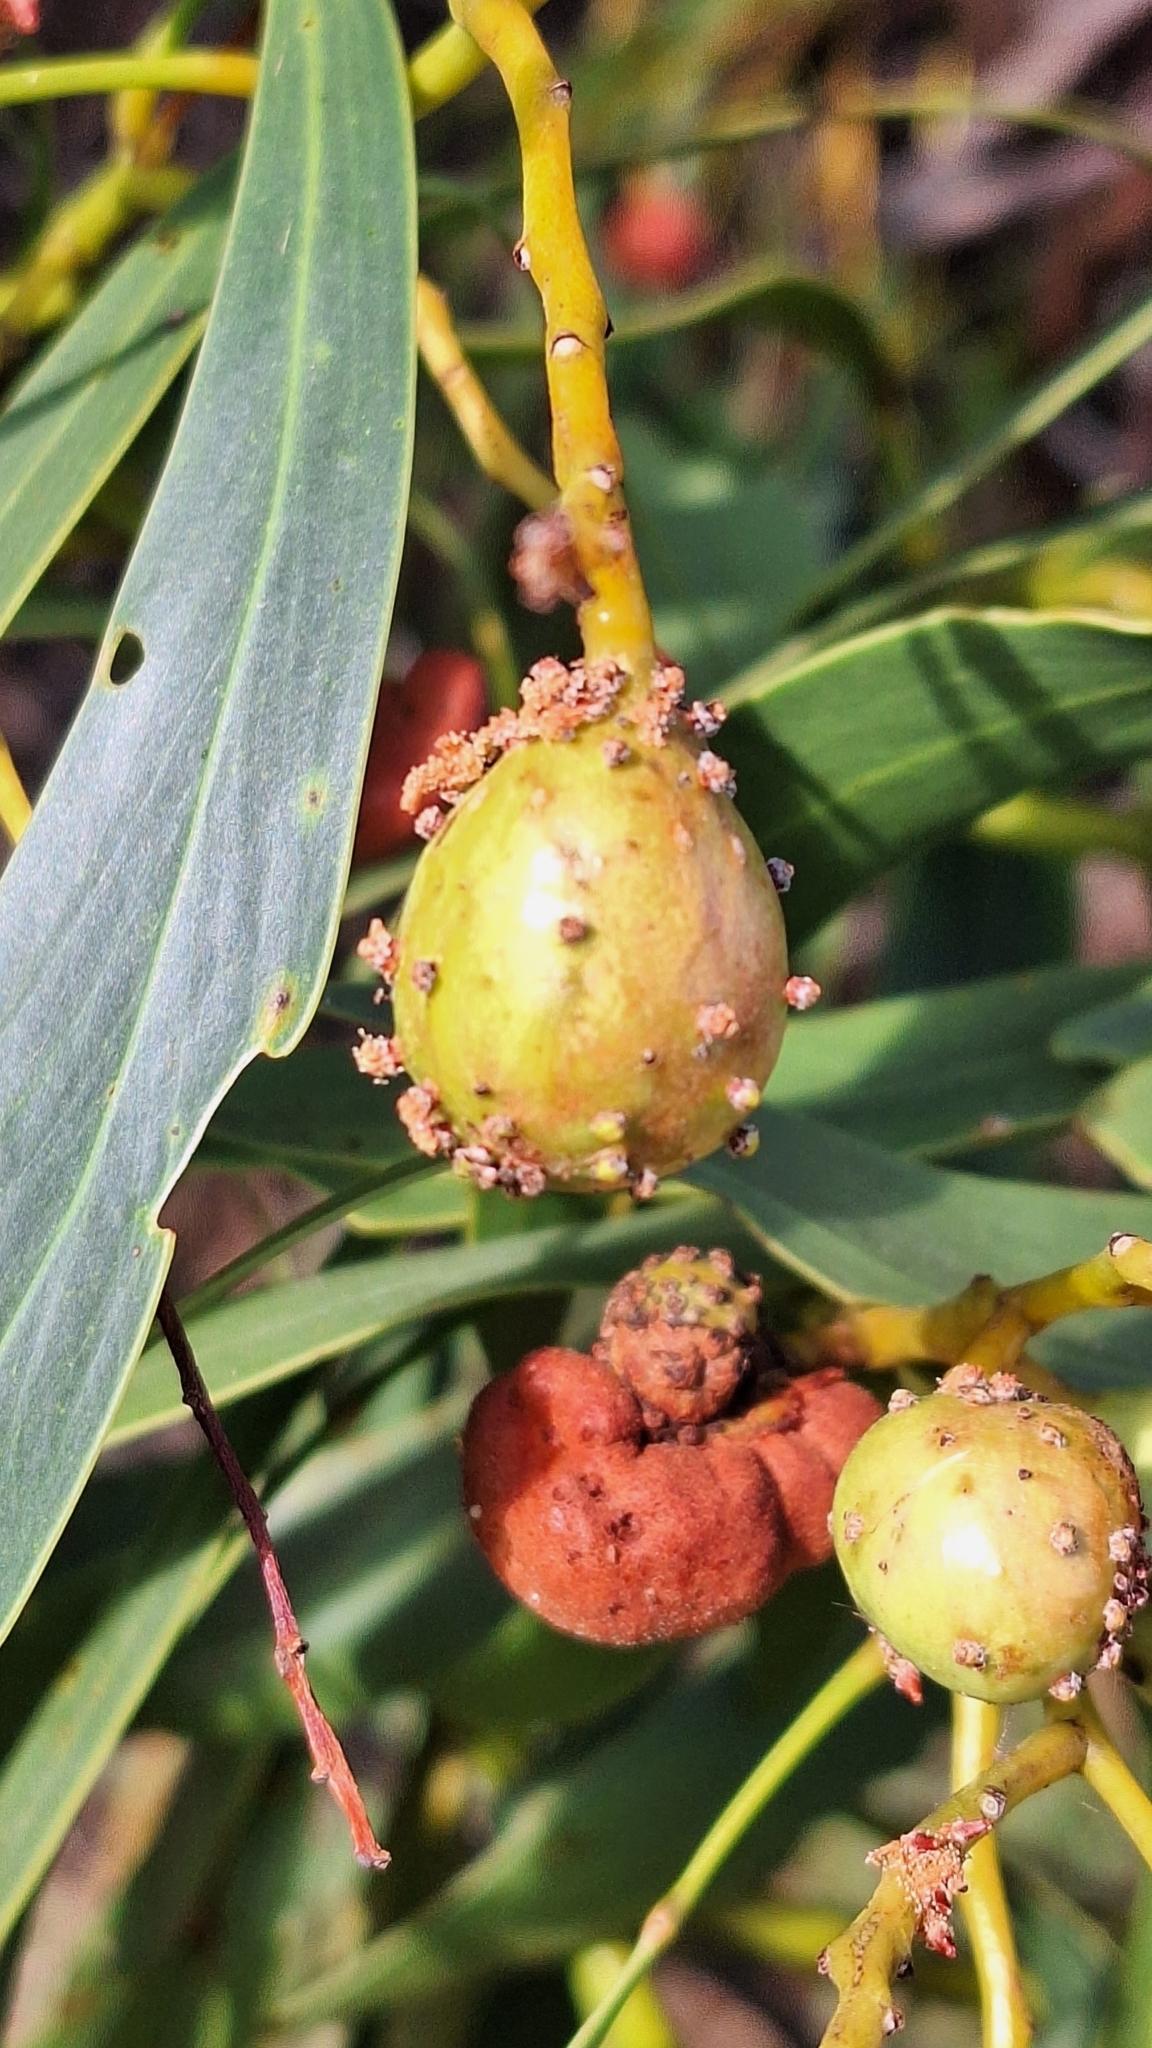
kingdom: Animalia
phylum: Arthropoda
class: Insecta
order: Hymenoptera
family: Pteromalidae
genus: Trichilogaster
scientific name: Trichilogaster signiventris
